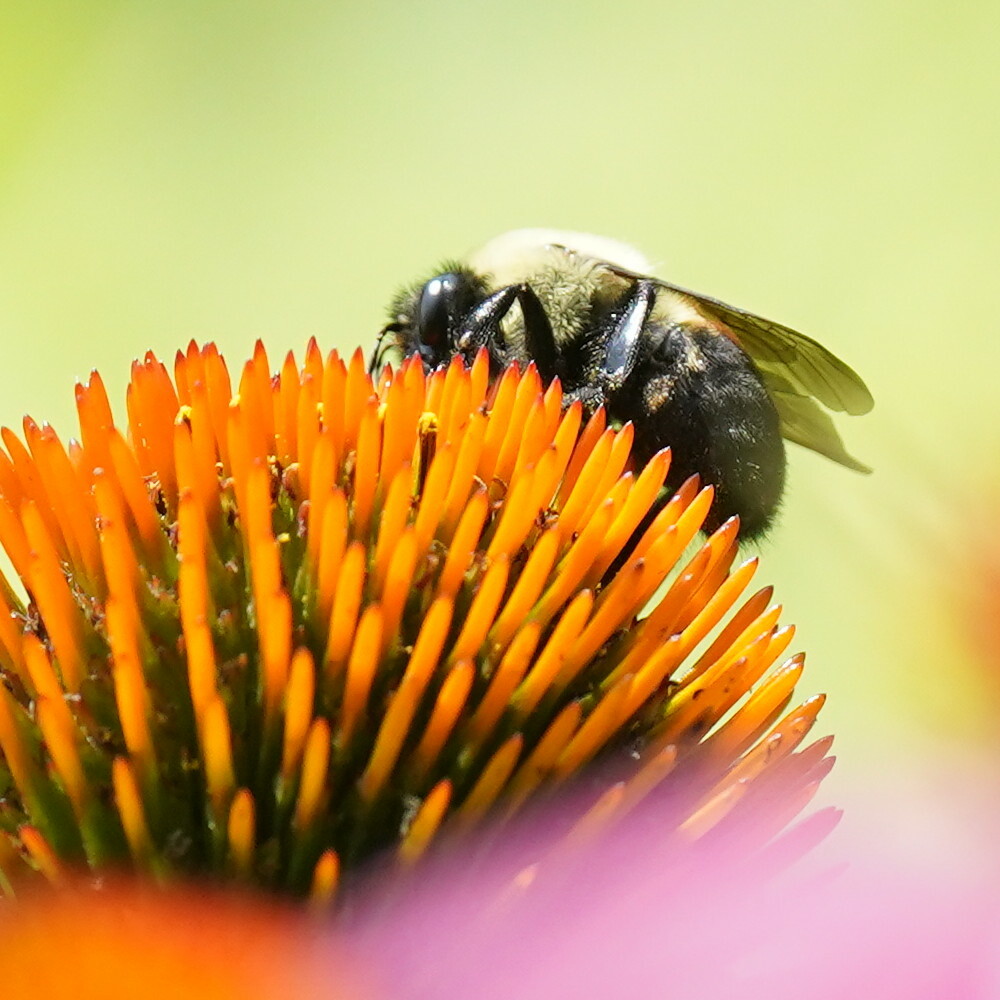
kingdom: Animalia
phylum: Arthropoda
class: Insecta
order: Hymenoptera
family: Apidae
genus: Bombus
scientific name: Bombus griseocollis
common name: Brown-belted bumble bee
